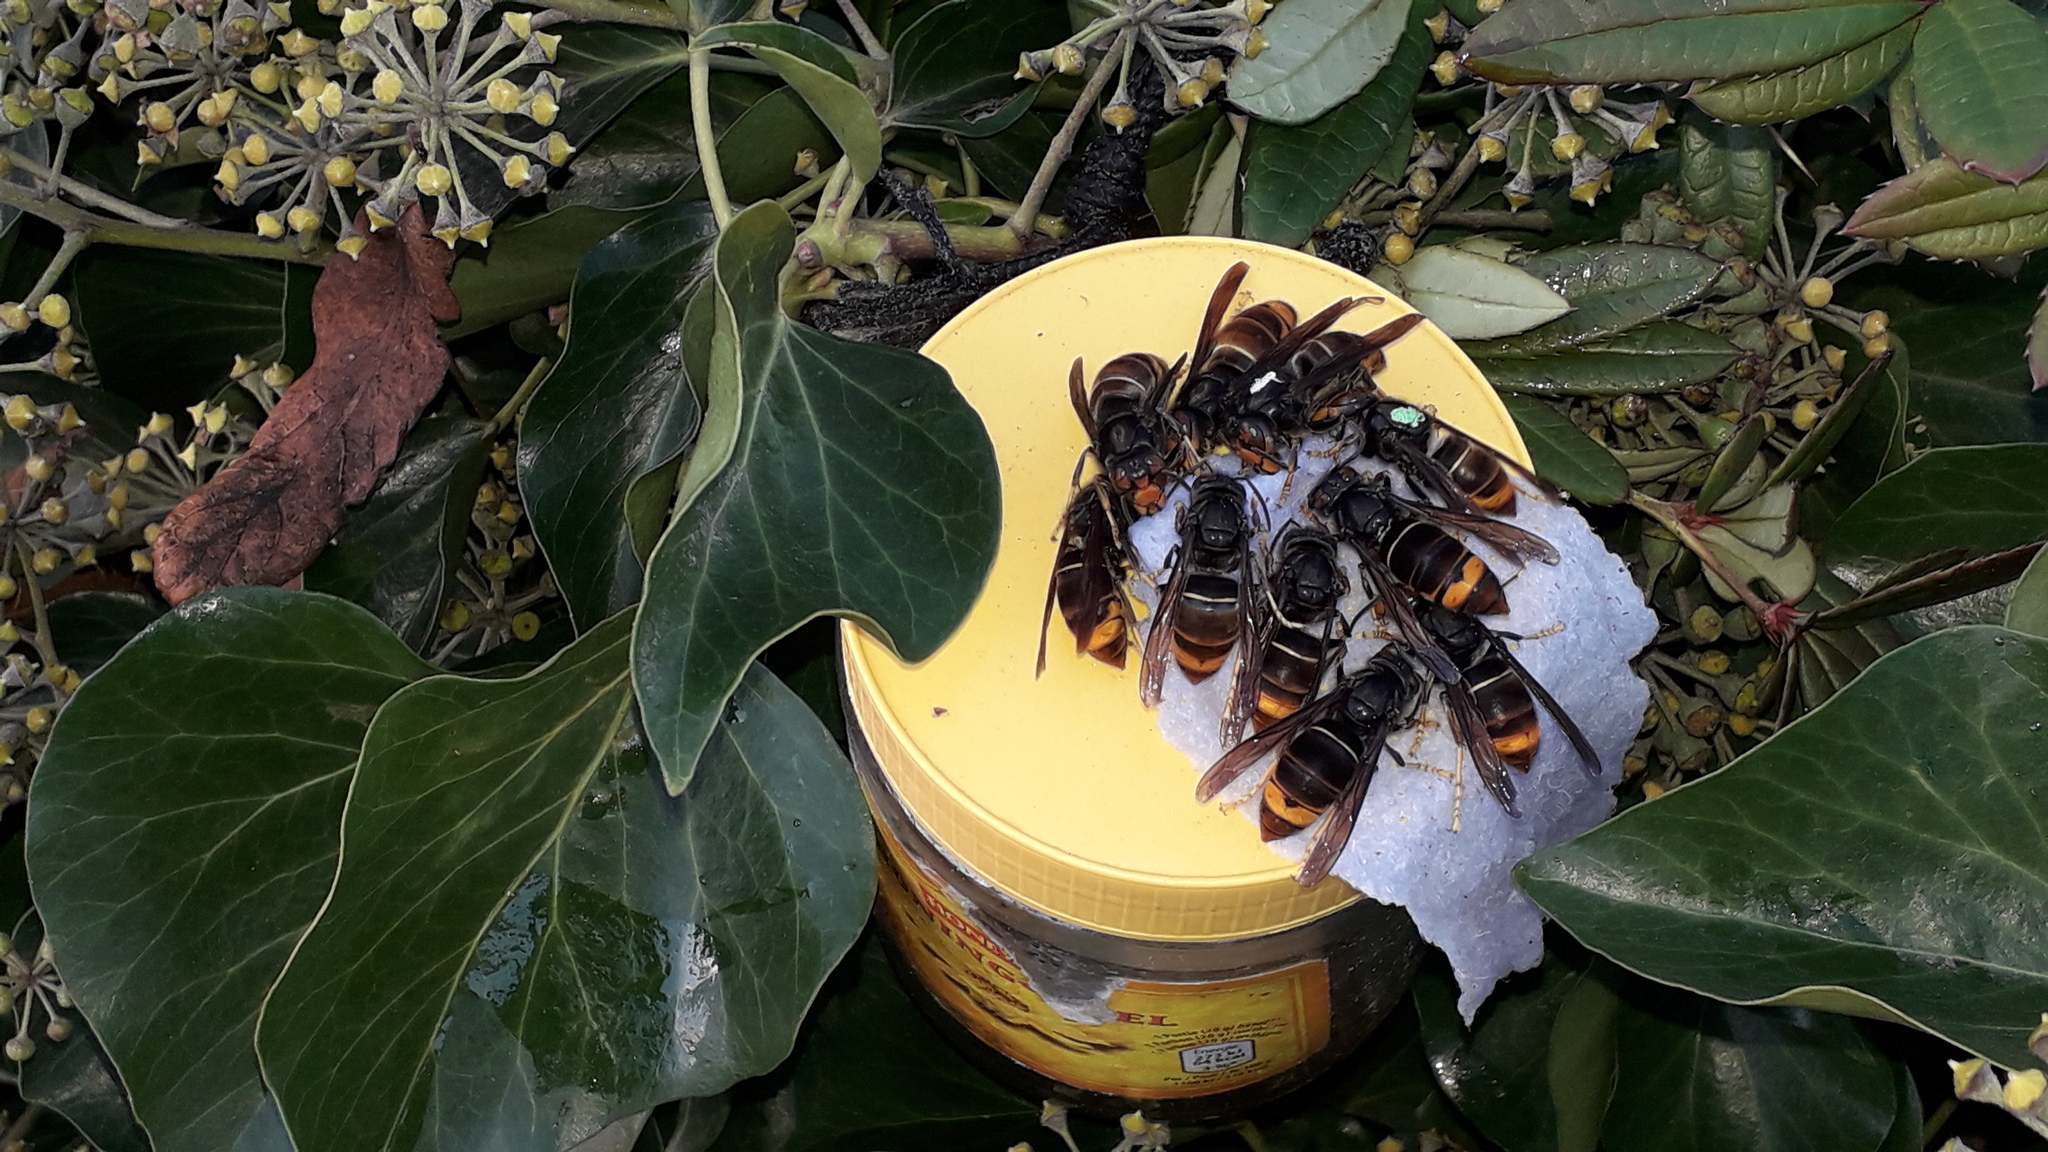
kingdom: Animalia
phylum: Arthropoda
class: Insecta
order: Hymenoptera
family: Vespidae
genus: Vespa
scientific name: Vespa velutina
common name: Asian hornet
